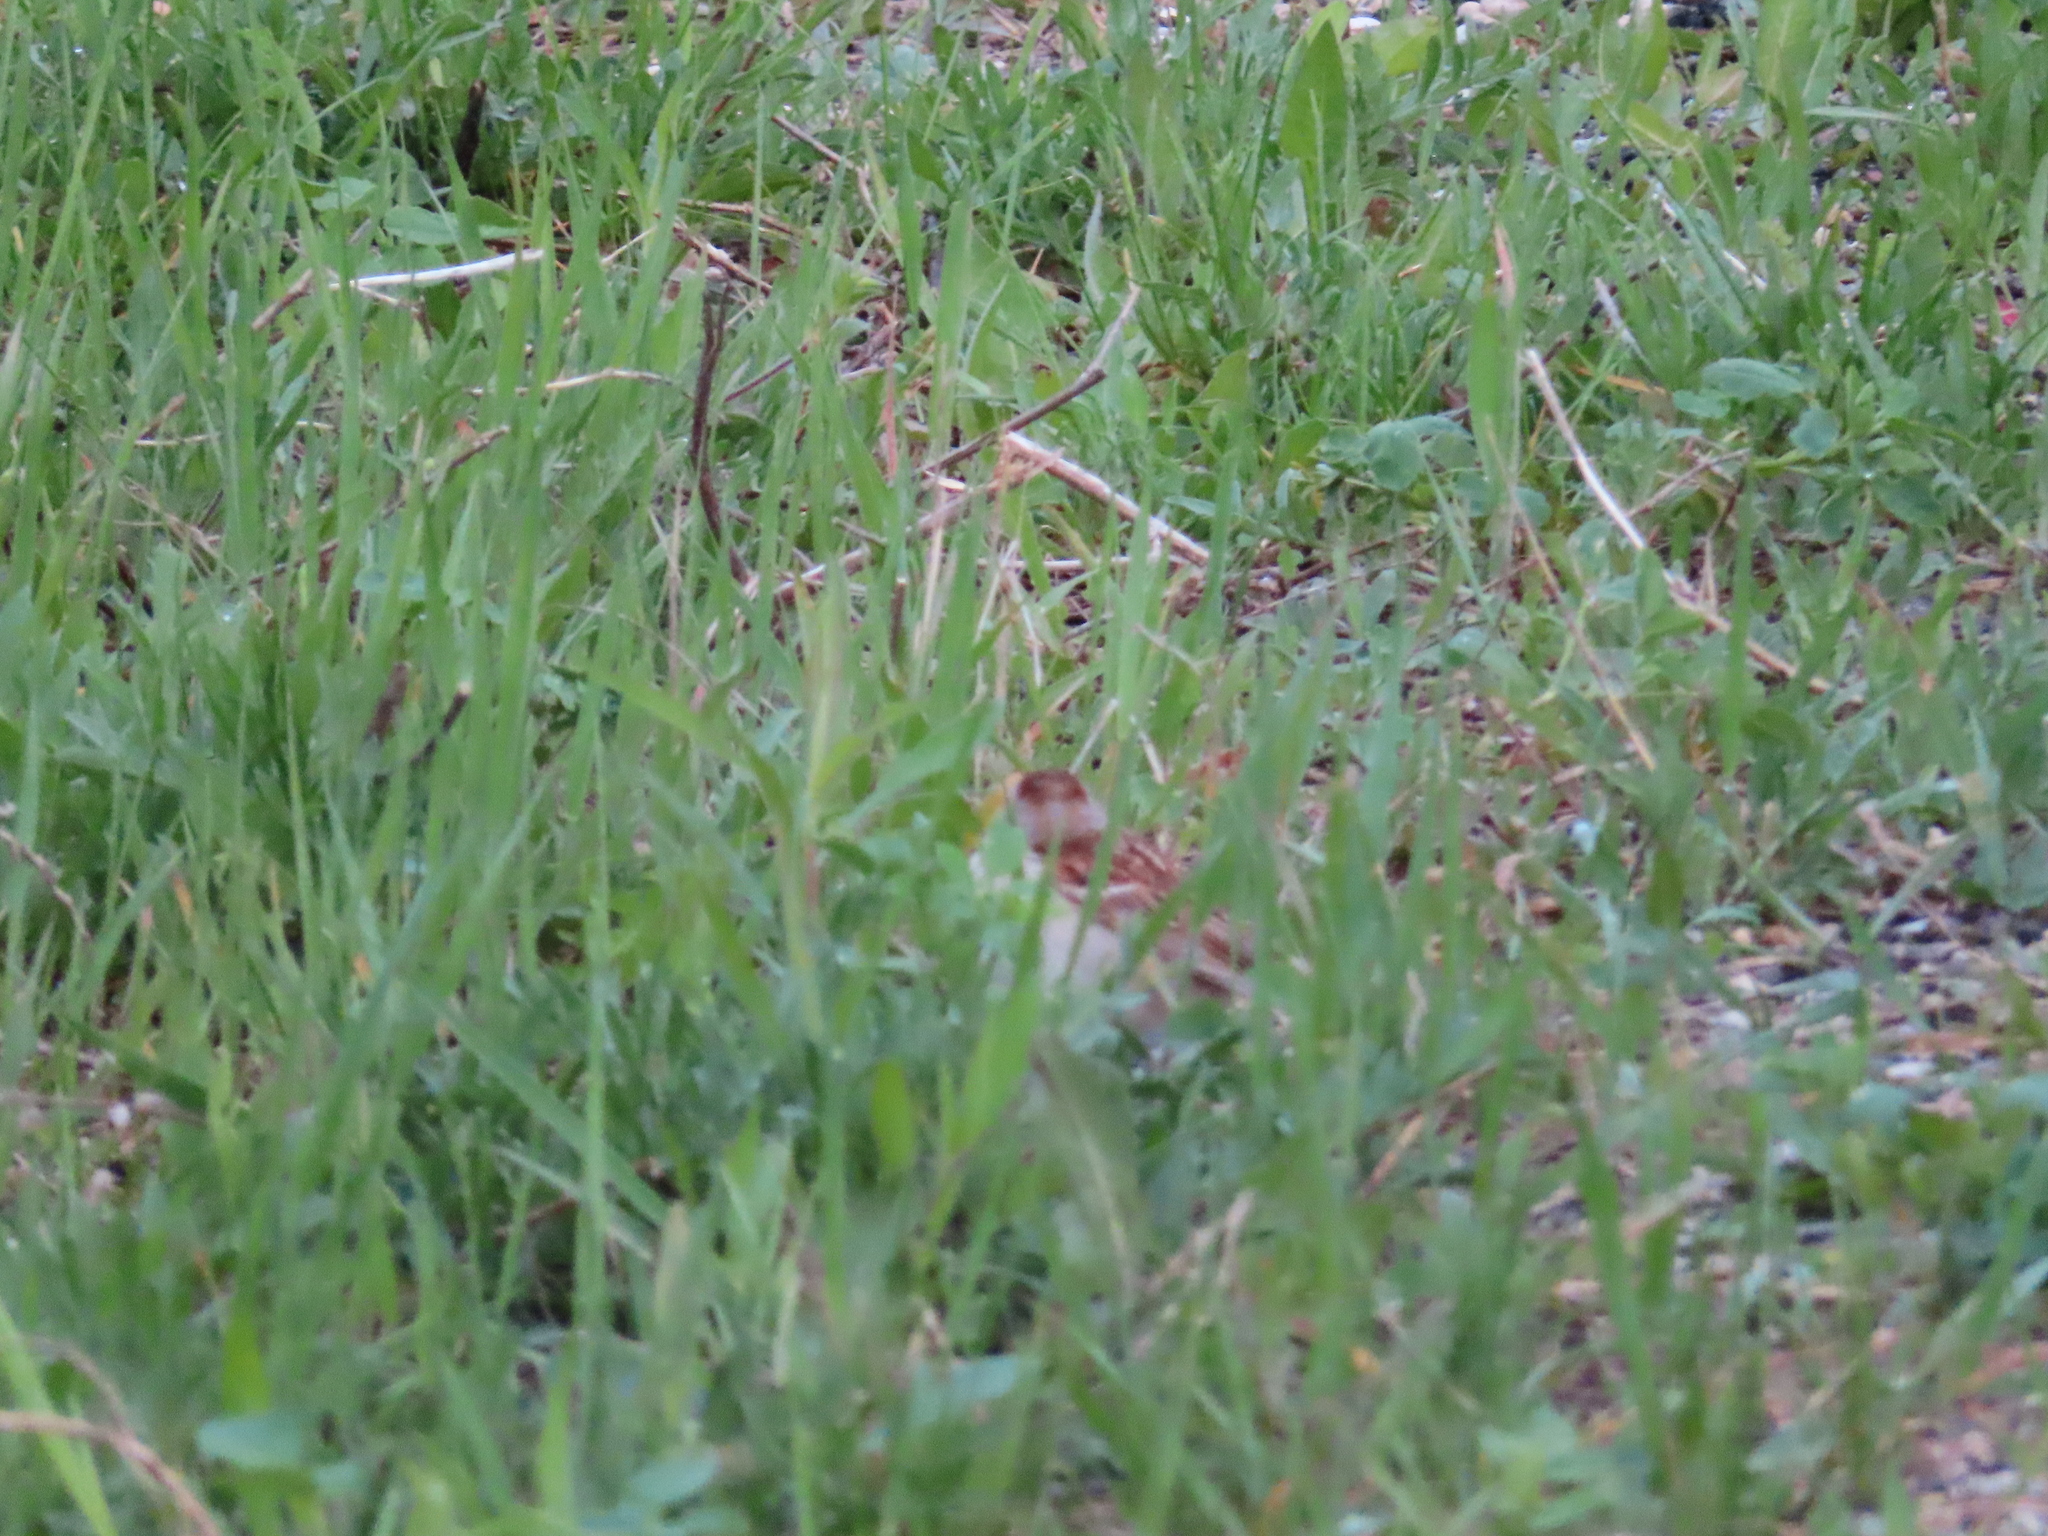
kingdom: Animalia
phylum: Chordata
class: Aves
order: Passeriformes
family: Passerellidae
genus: Spizella
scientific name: Spizella pusilla
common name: Field sparrow
